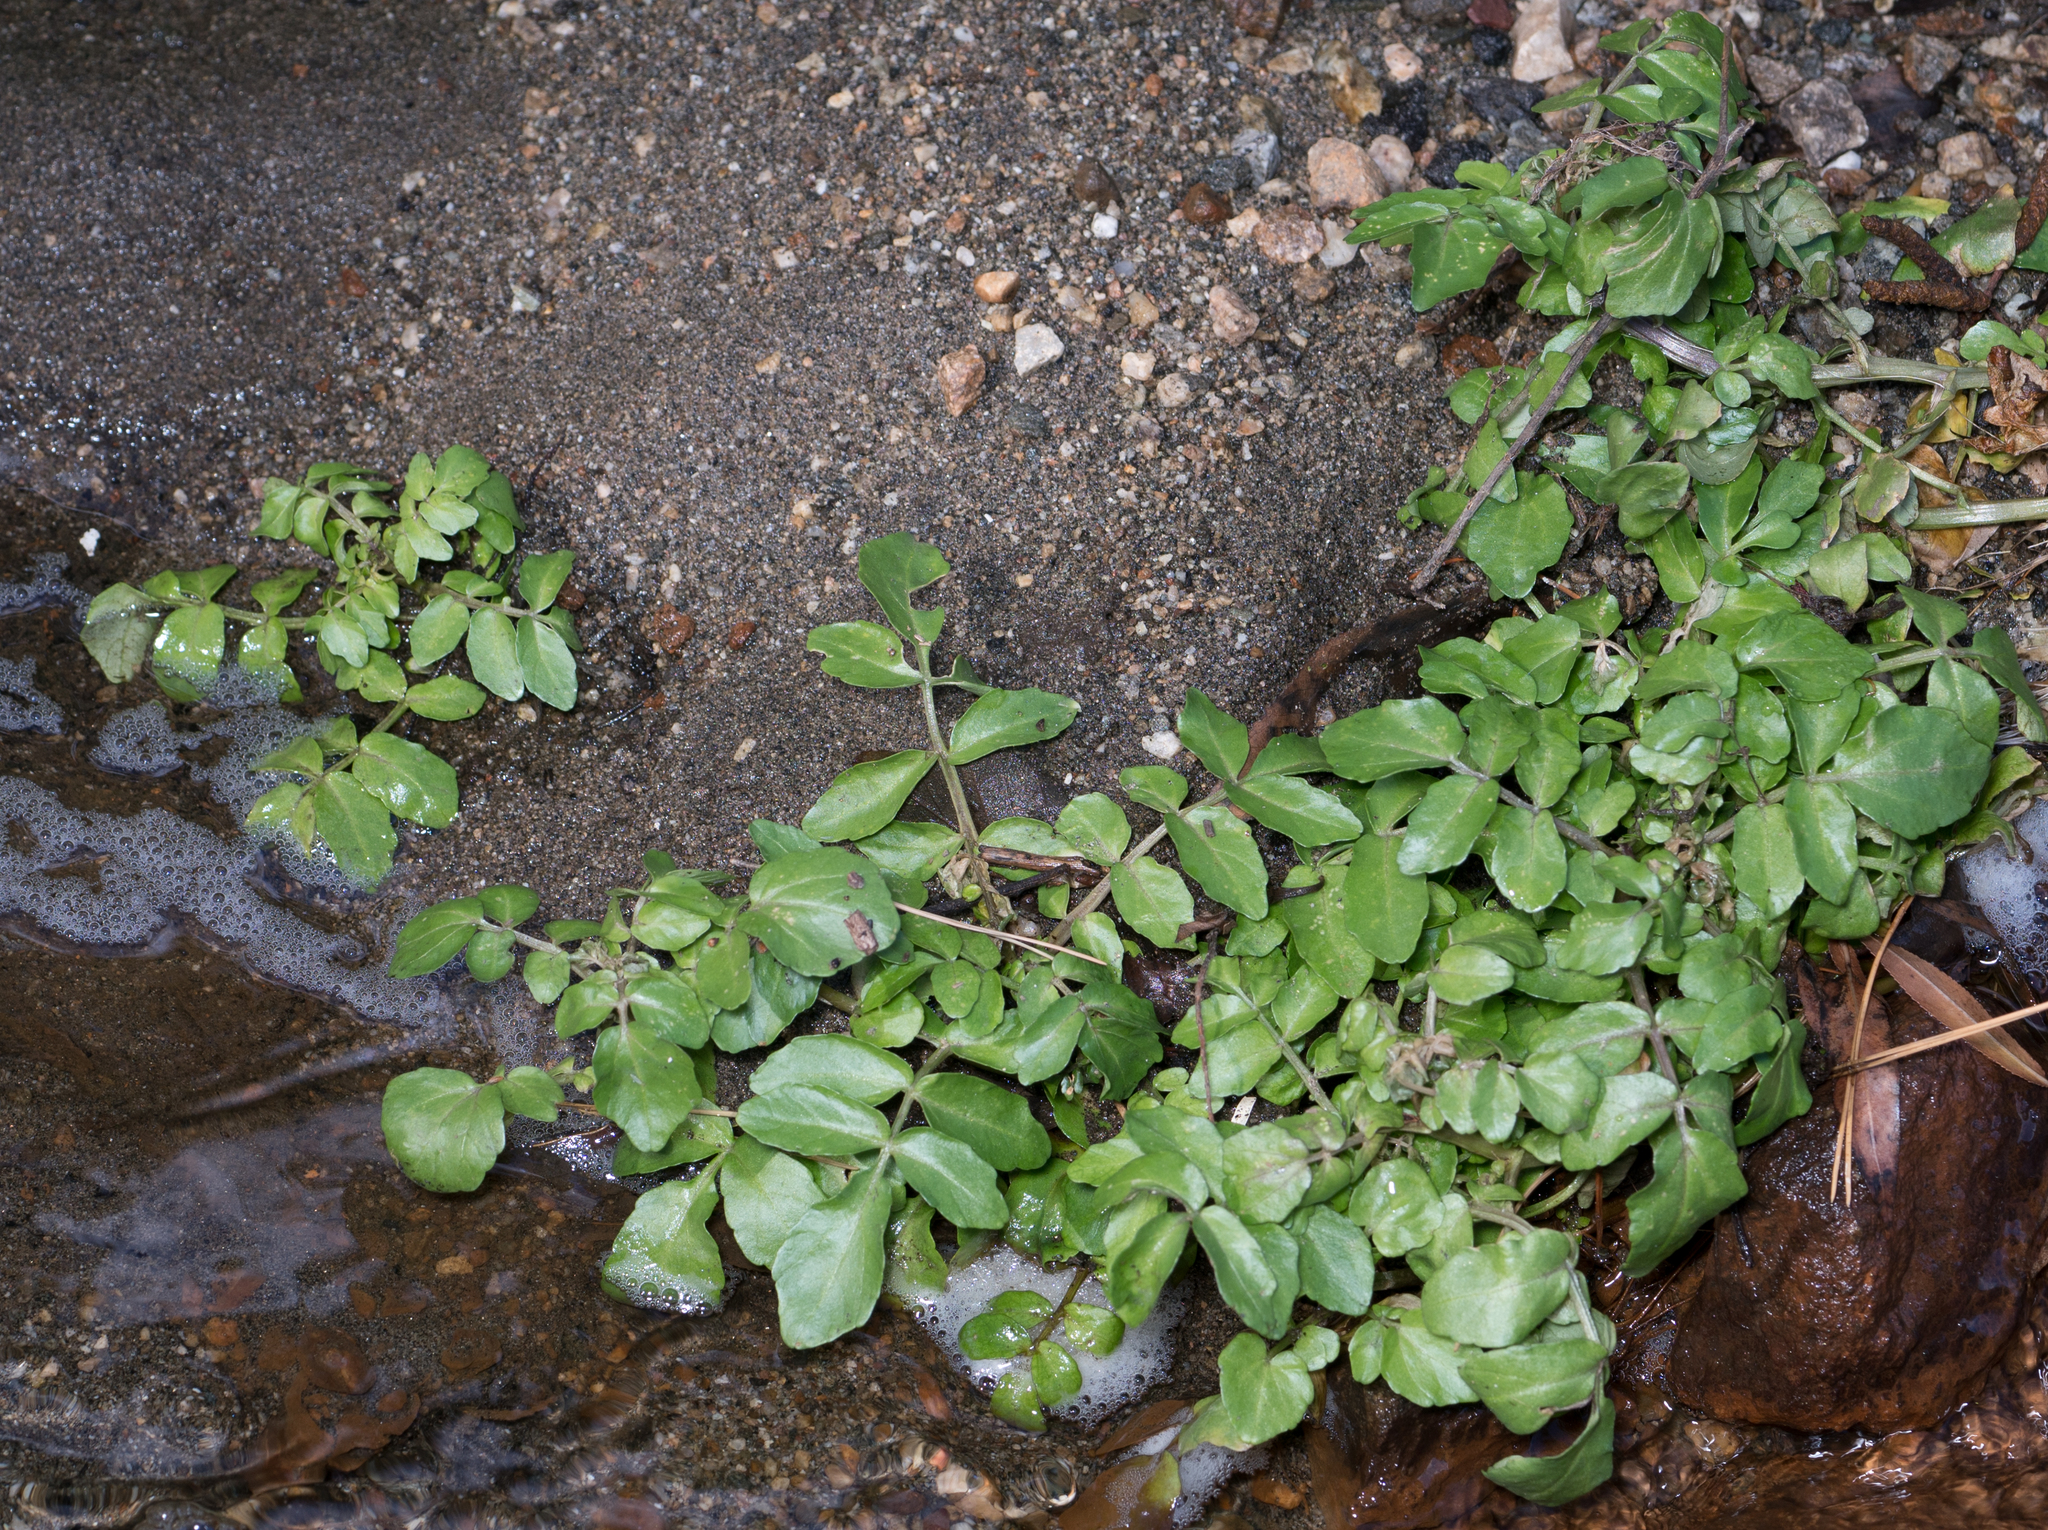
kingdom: Plantae
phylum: Tracheophyta
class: Magnoliopsida
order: Brassicales
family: Brassicaceae
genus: Nasturtium
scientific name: Nasturtium officinale
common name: Watercress
